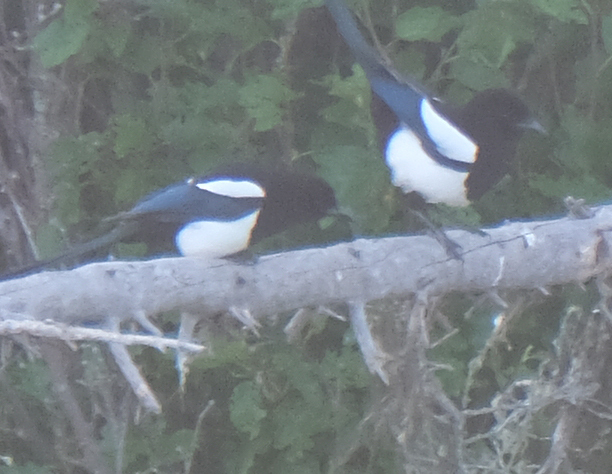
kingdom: Animalia
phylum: Chordata
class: Aves
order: Passeriformes
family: Corvidae
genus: Pica
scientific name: Pica hudsonia
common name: Black-billed magpie
